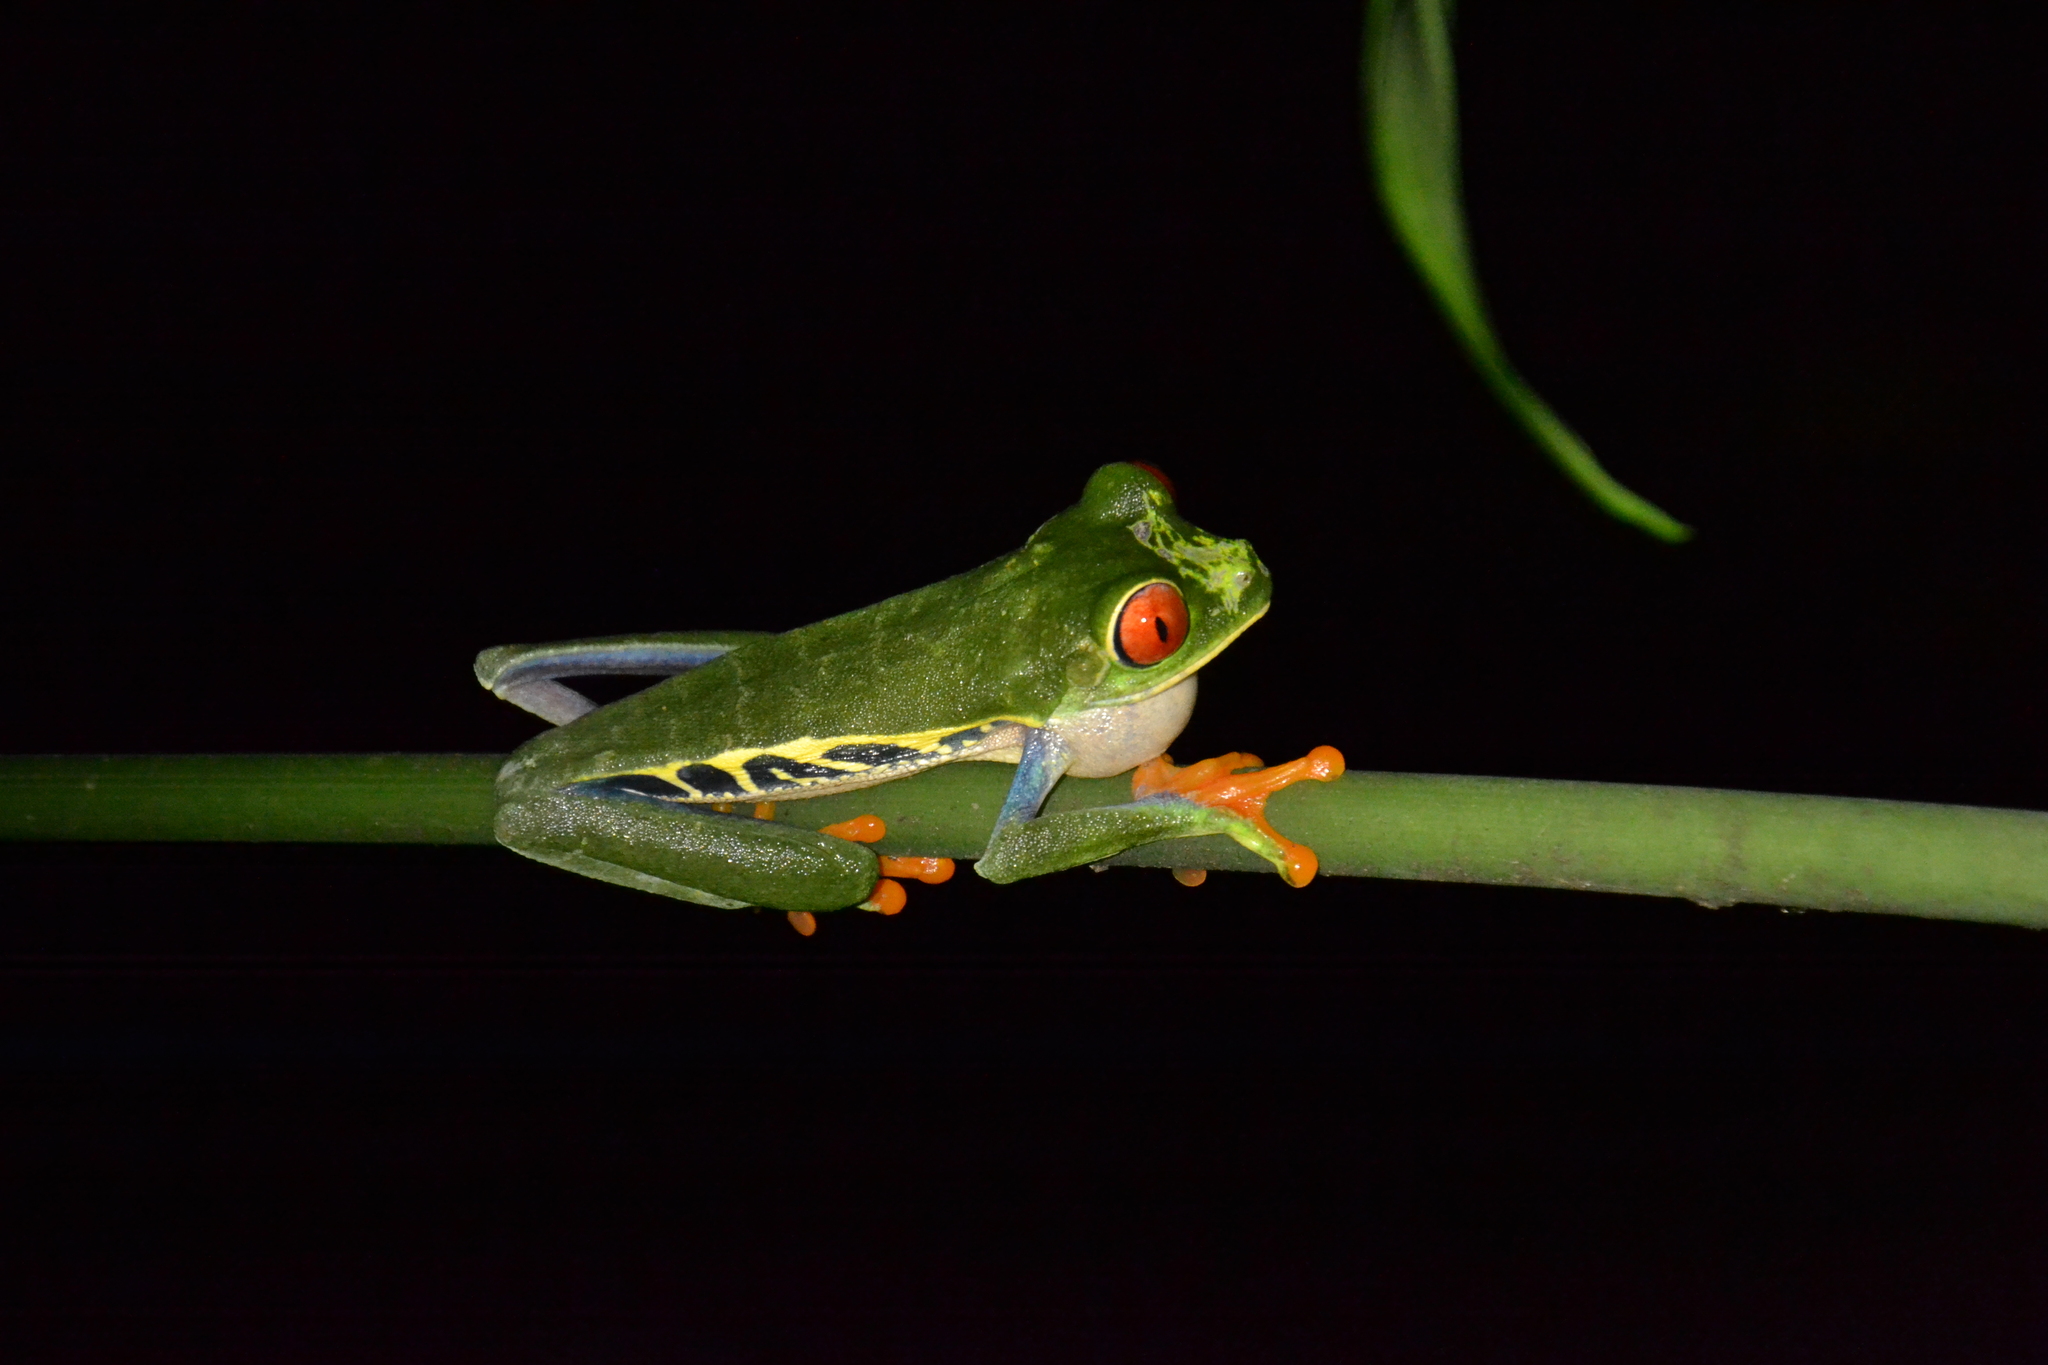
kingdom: Animalia
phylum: Chordata
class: Amphibia
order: Anura
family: Phyllomedusidae
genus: Agalychnis
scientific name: Agalychnis callidryas
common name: Red-eyed treefrog
